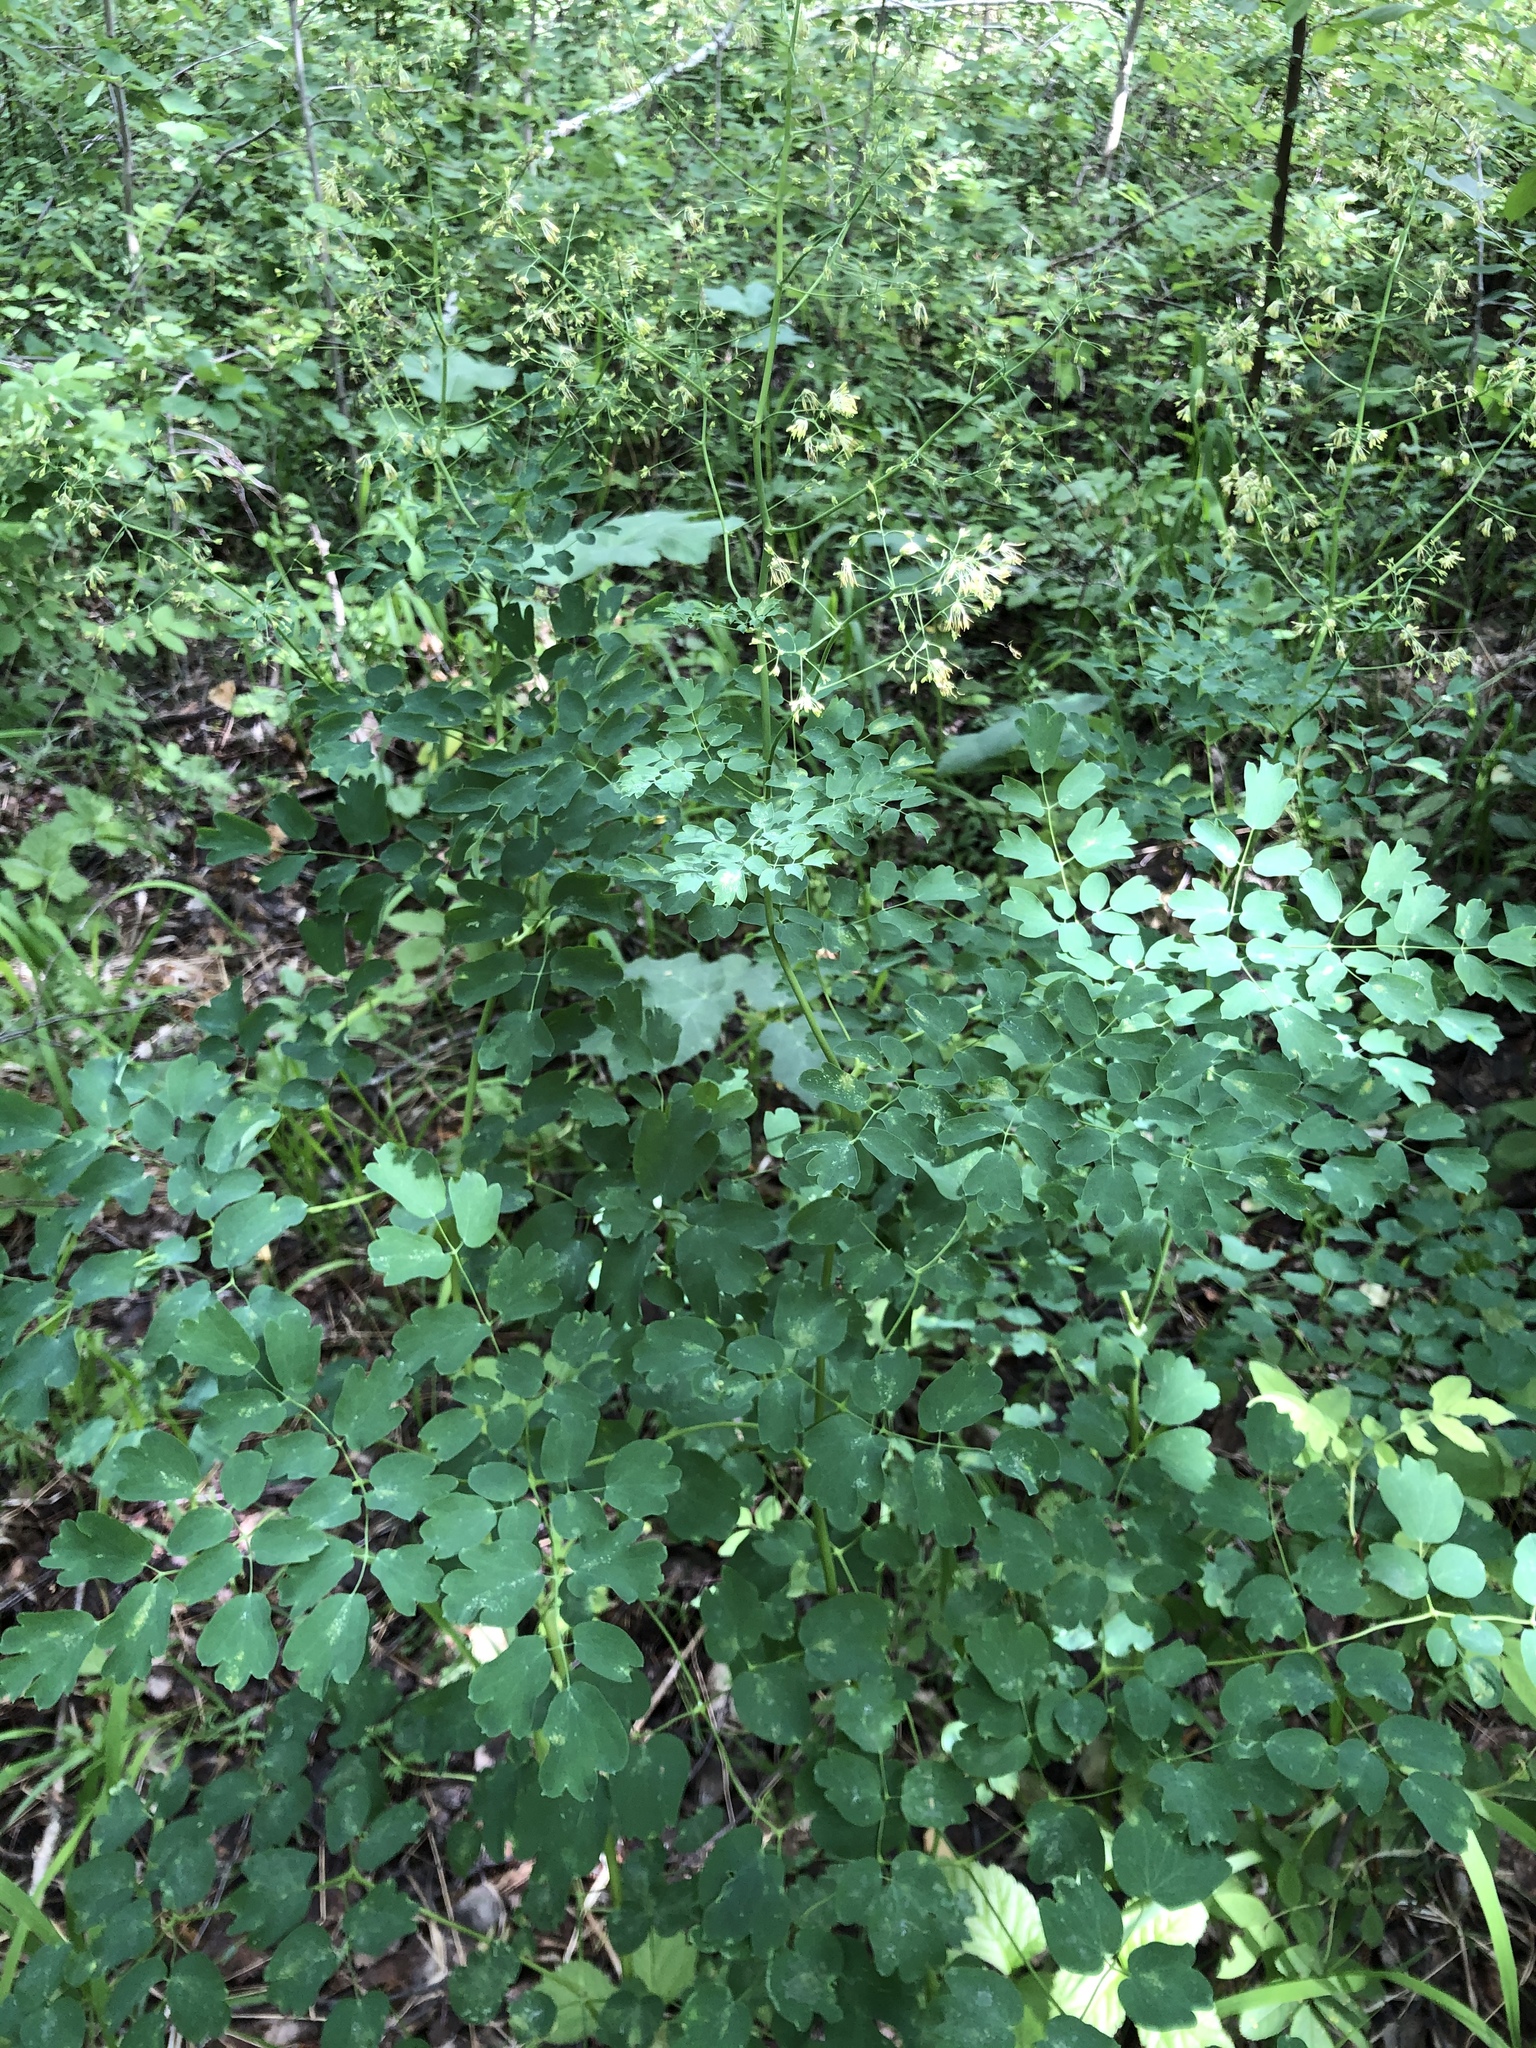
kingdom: Plantae
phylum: Tracheophyta
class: Magnoliopsida
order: Ranunculales
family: Ranunculaceae
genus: Thalictrum
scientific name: Thalictrum minus
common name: Lesser meadow-rue
